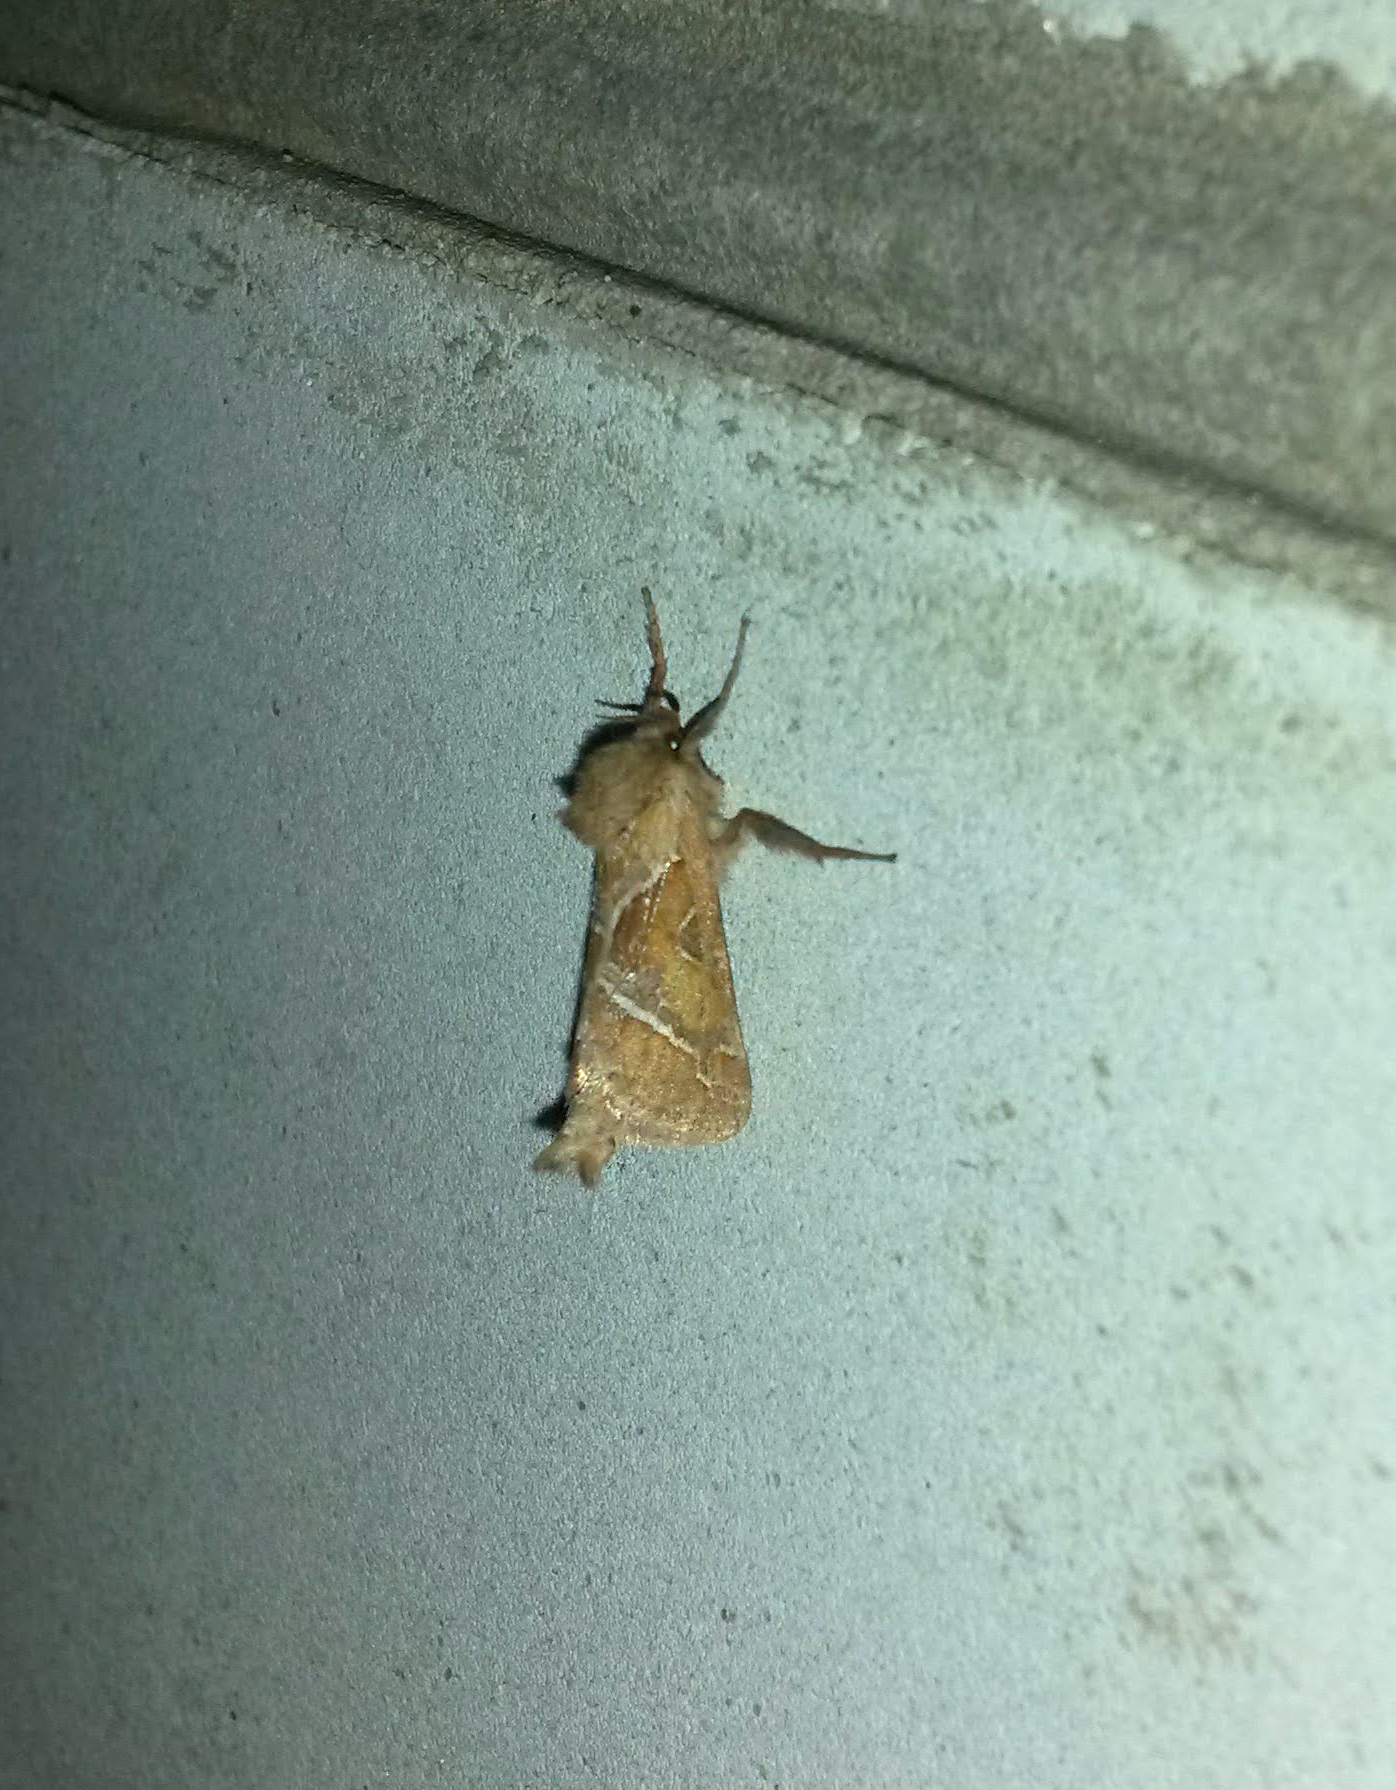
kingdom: Animalia
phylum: Arthropoda
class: Insecta
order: Lepidoptera
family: Hepialidae
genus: Triodia
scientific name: Triodia sylvina
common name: Orange swift
